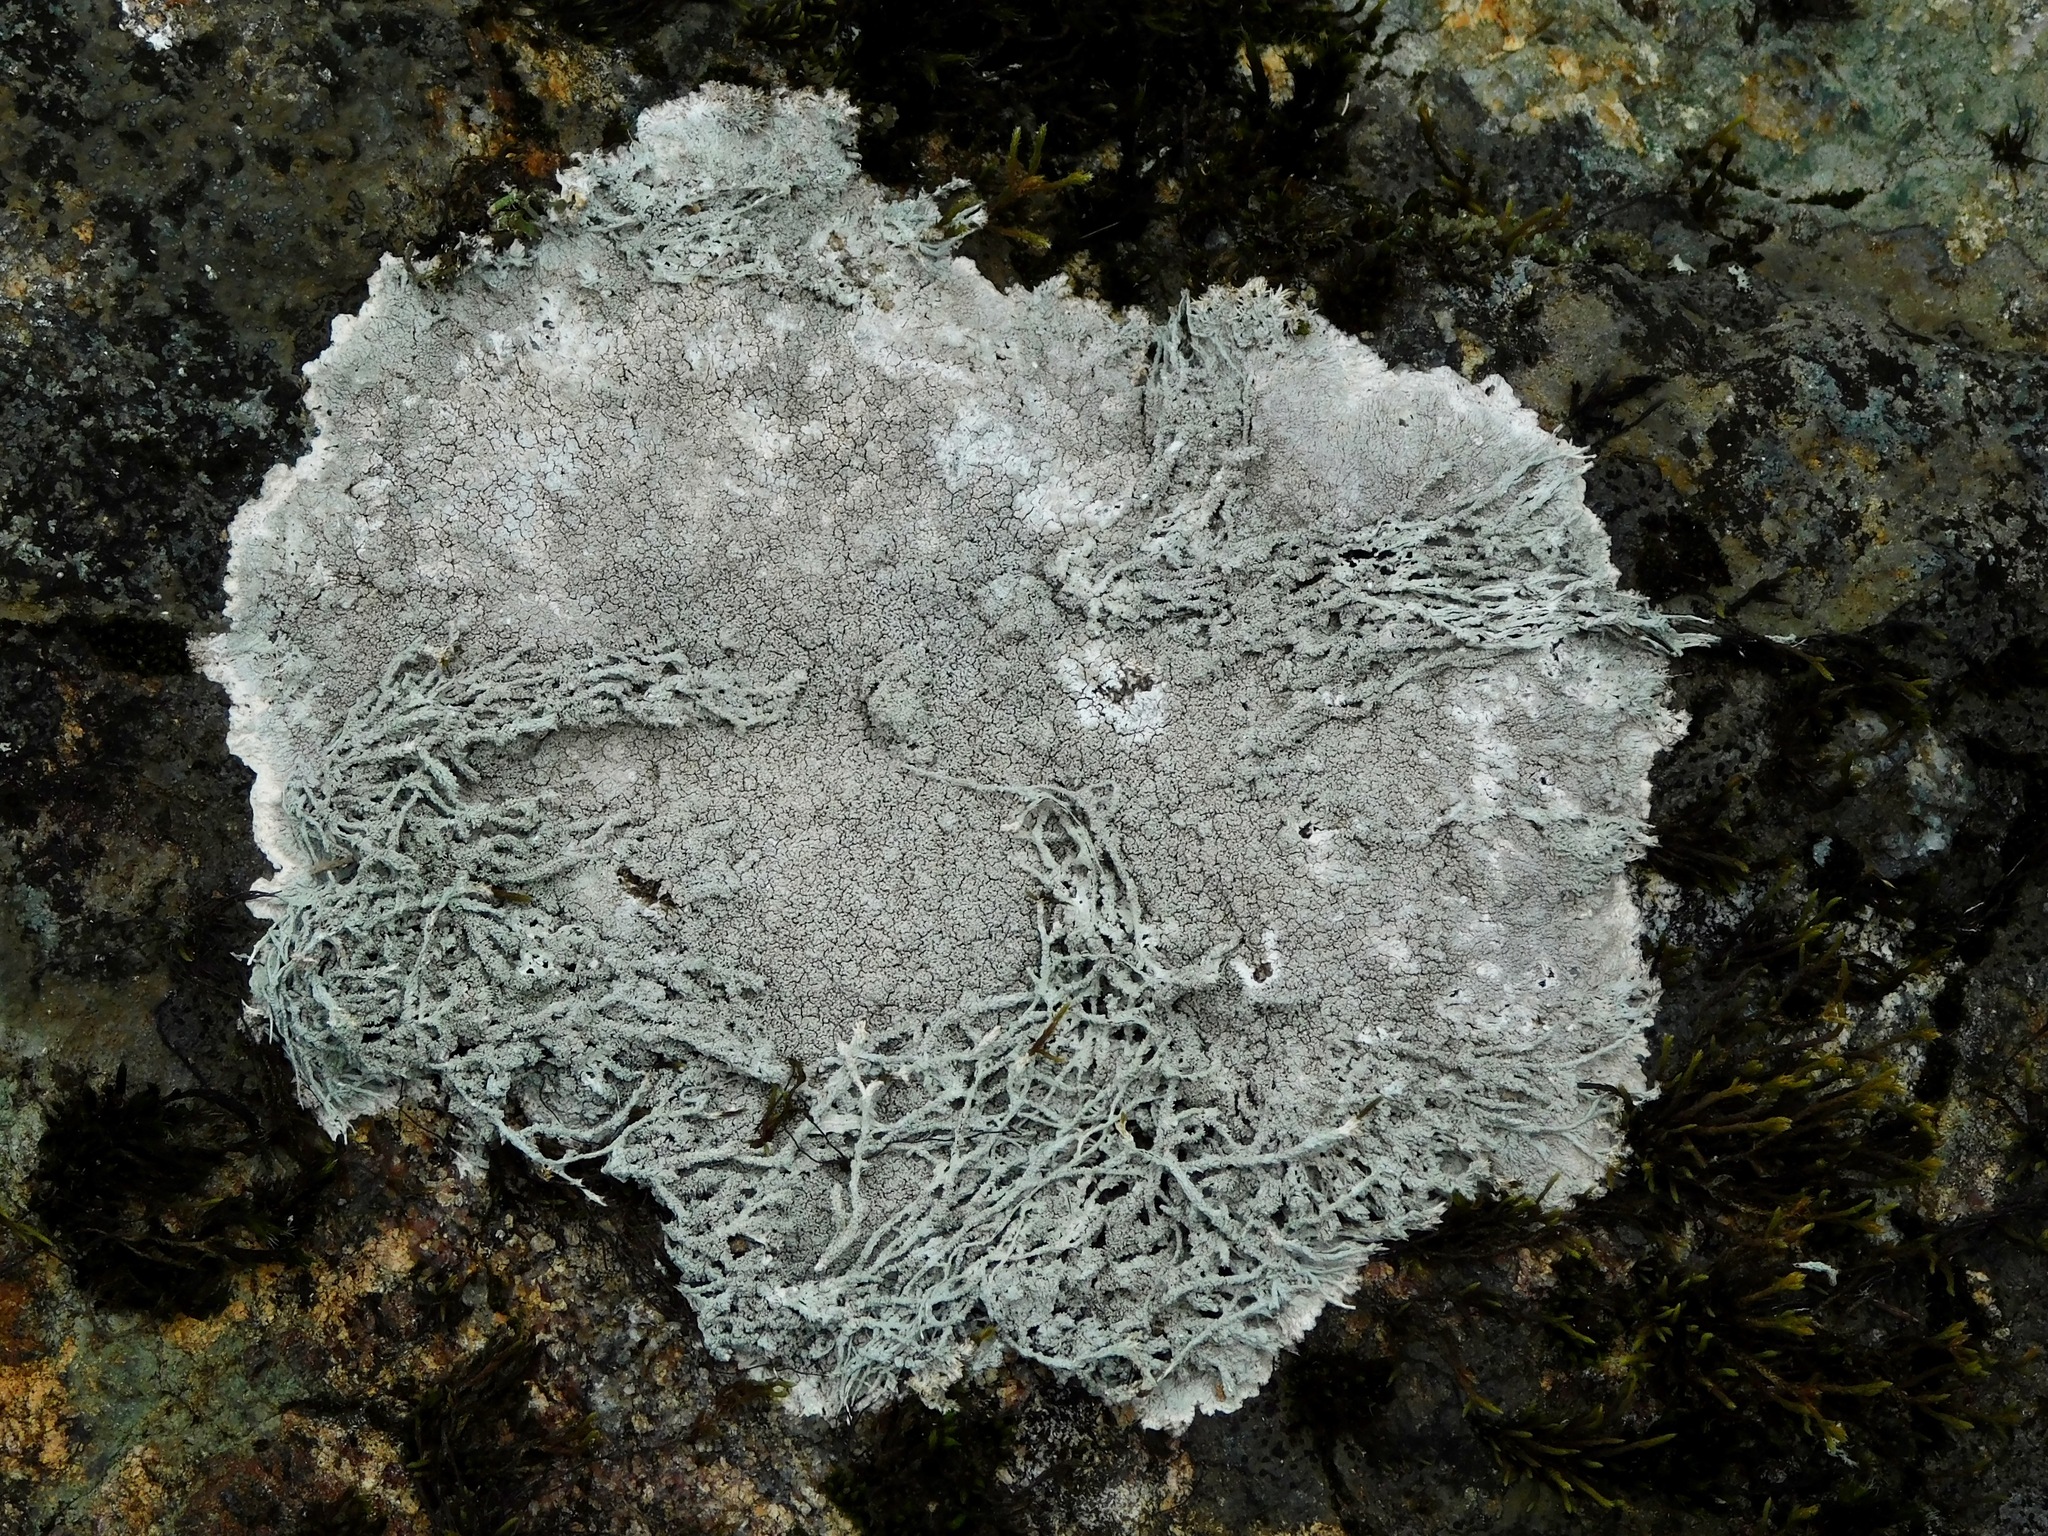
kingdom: Fungi
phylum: Ascomycota
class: Lecanoromycetes
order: Pertusariales
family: Ochrolechiaceae
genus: Ochrolechia
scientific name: Ochrolechia yasudae
